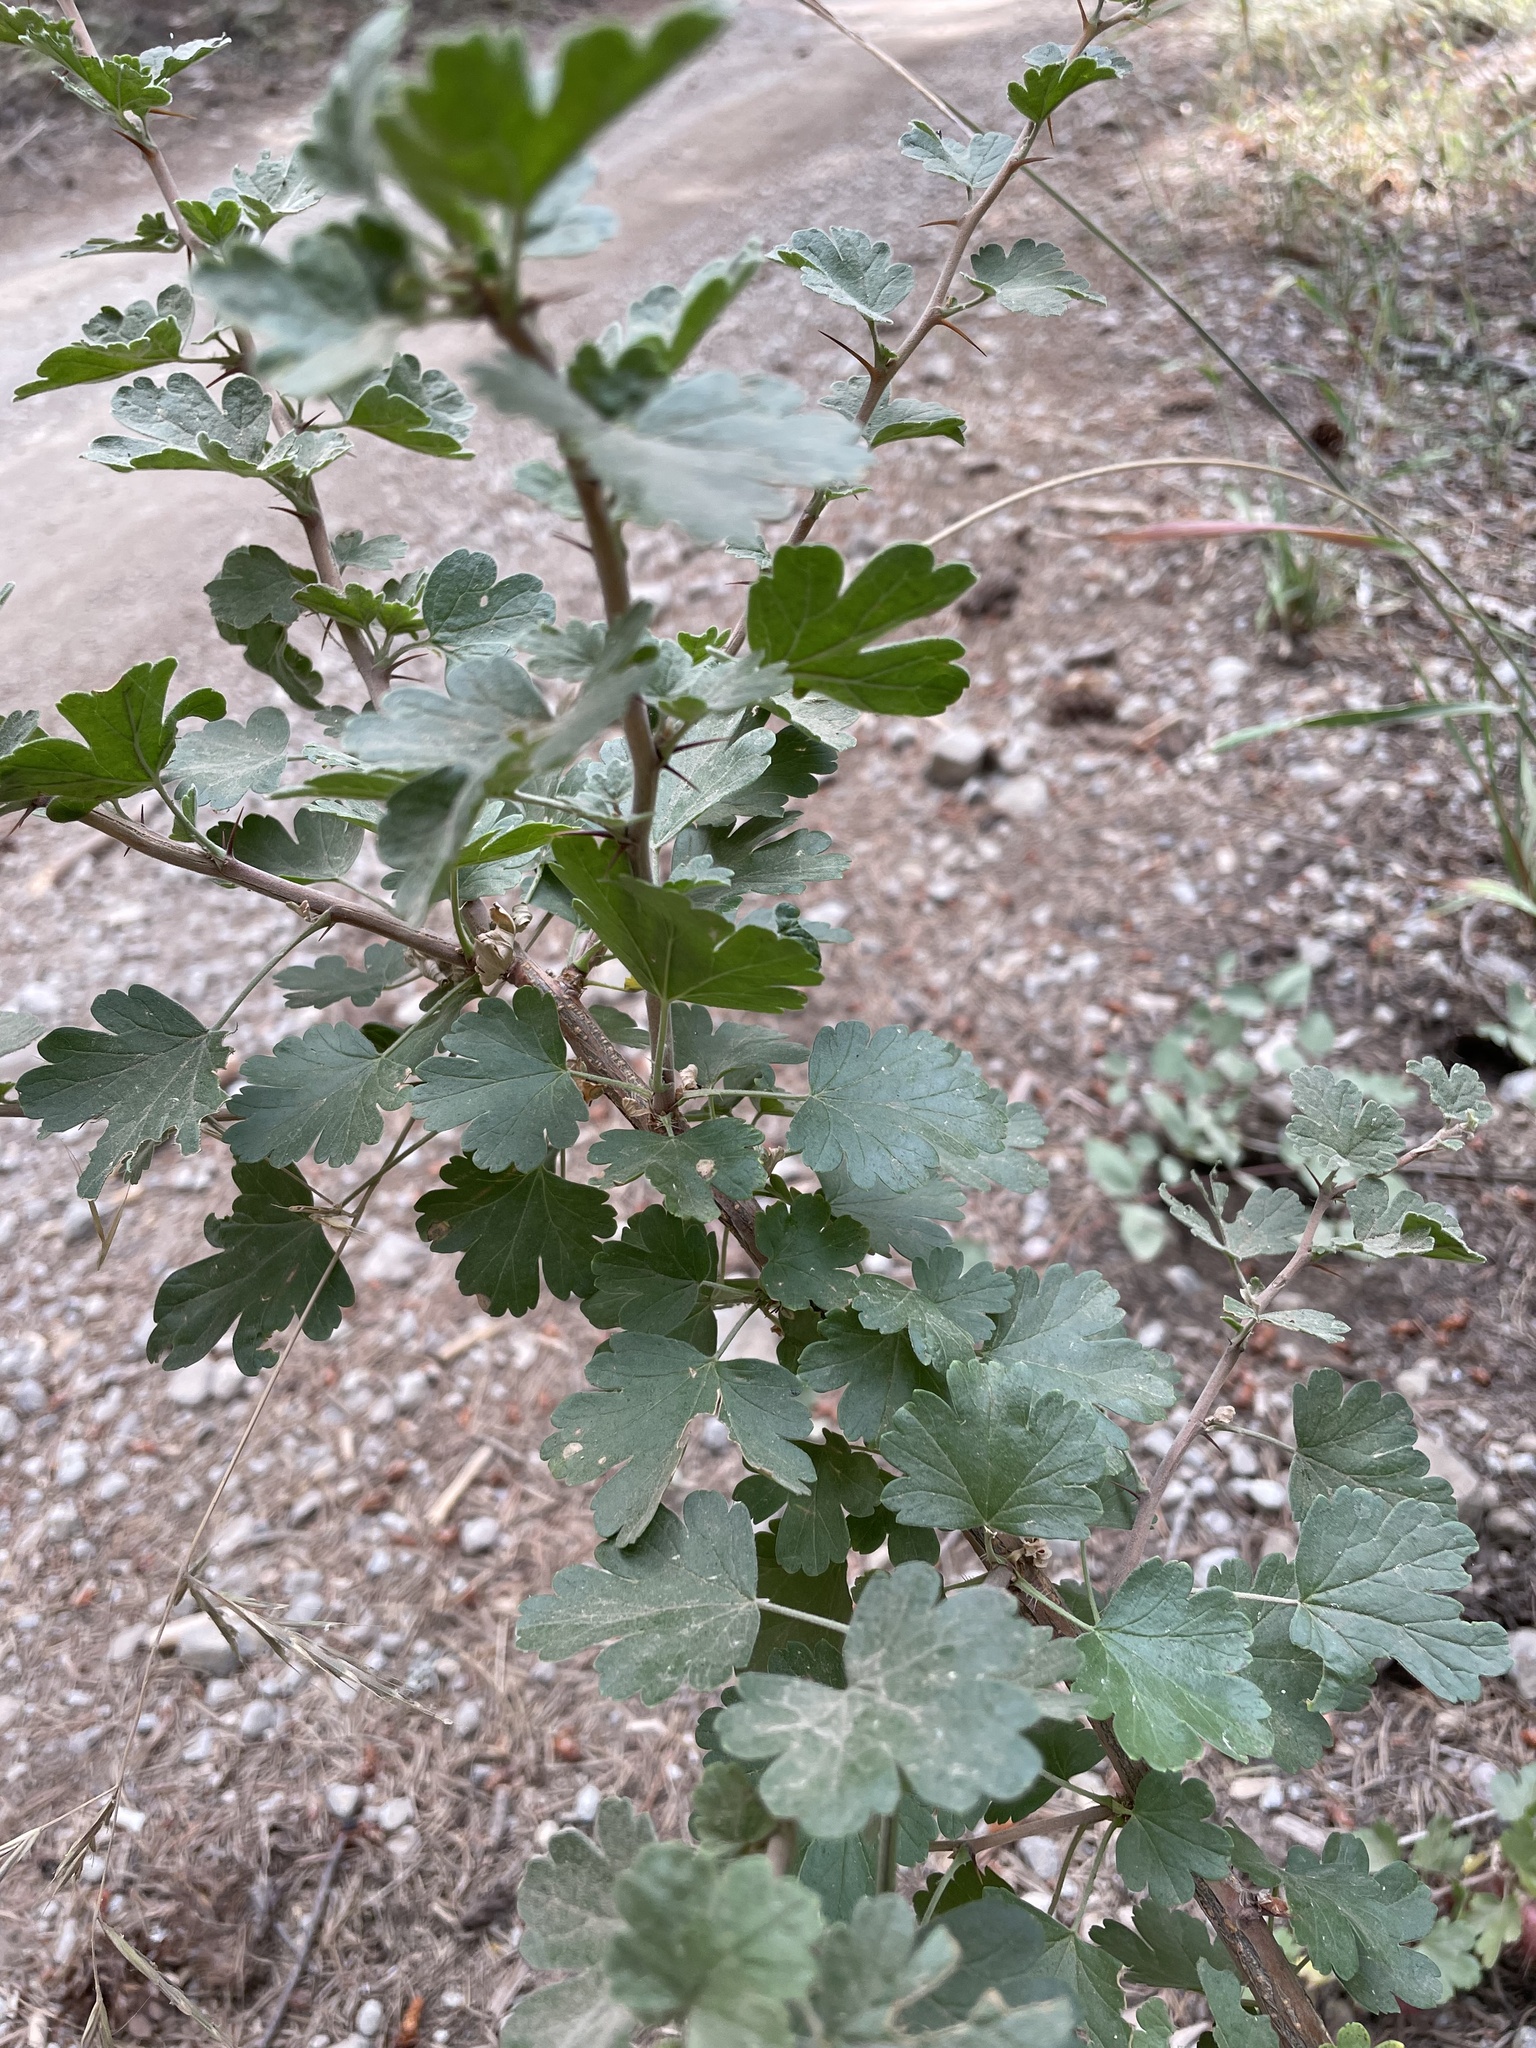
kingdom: Plantae
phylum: Tracheophyta
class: Magnoliopsida
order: Saxifragales
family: Grossulariaceae
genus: Ribes
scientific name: Ribes roezlii
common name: Sierra gooseberry
